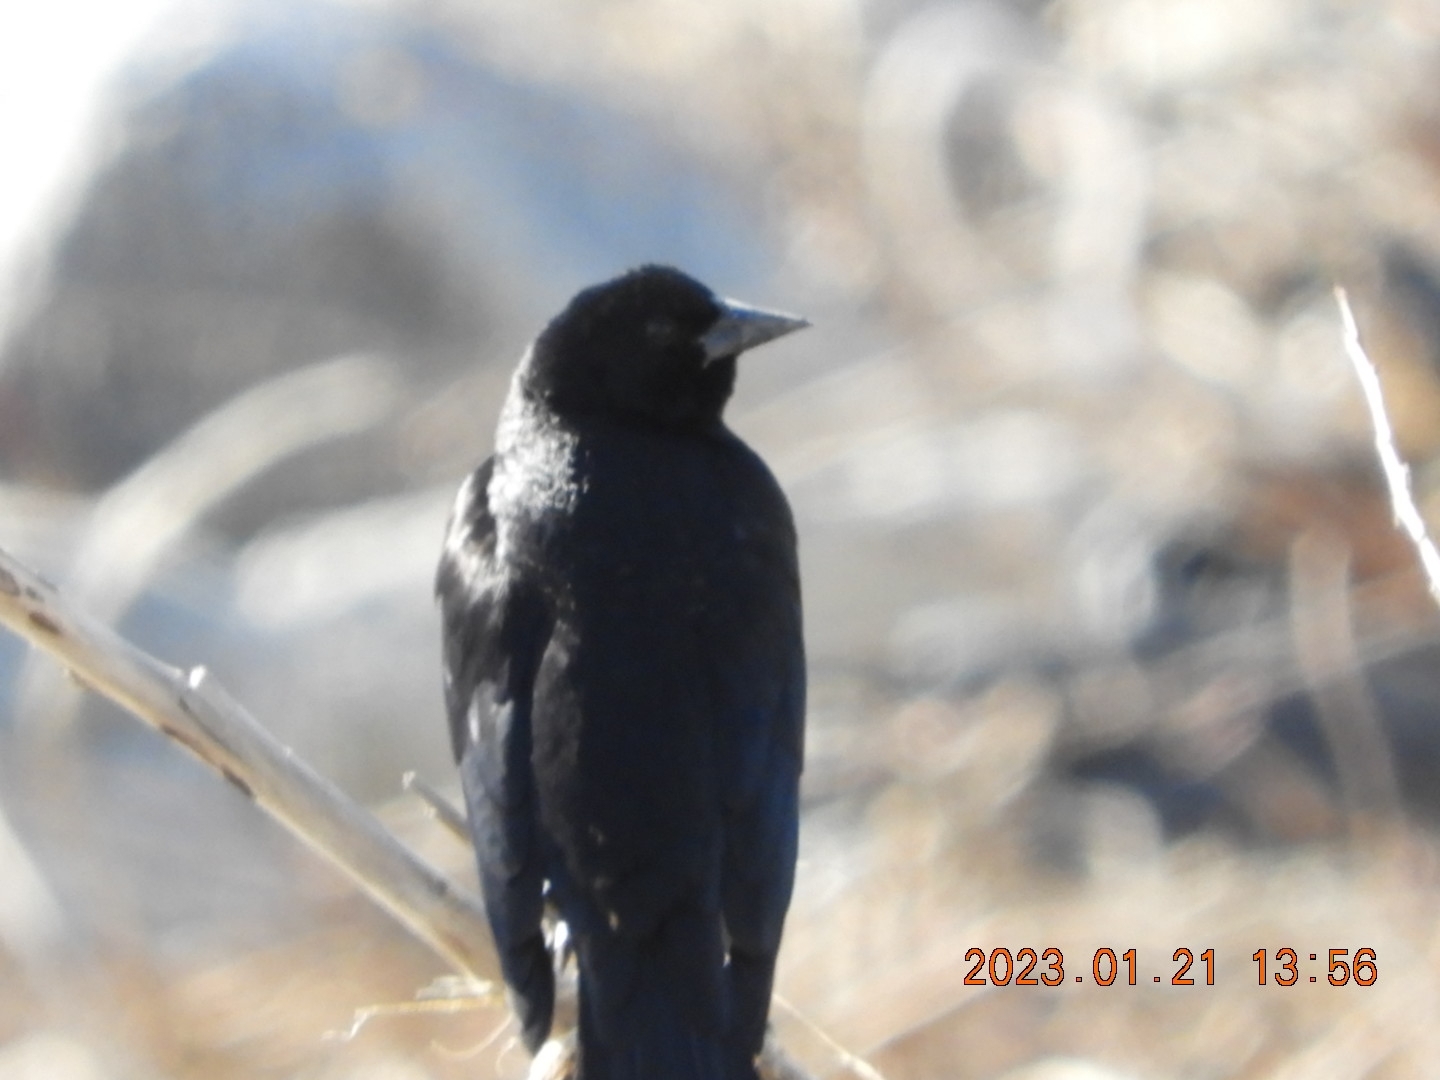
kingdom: Animalia
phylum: Chordata
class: Aves
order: Passeriformes
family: Icteridae
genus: Agelaius
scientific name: Agelaius phoeniceus
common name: Red-winged blackbird
